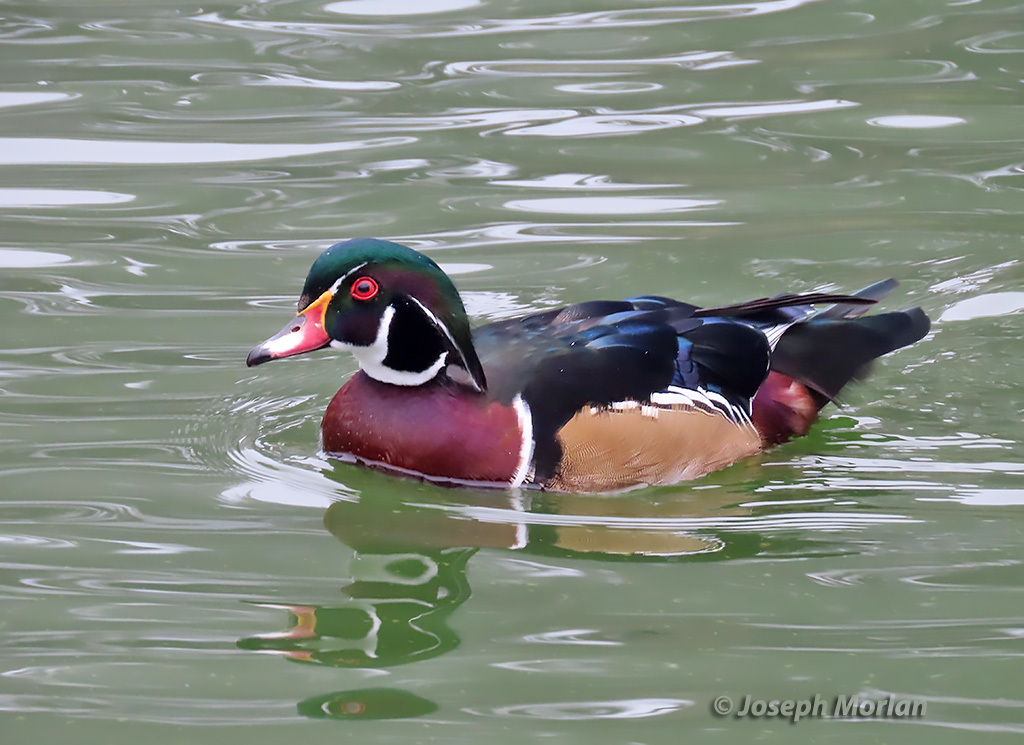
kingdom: Animalia
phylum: Chordata
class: Aves
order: Anseriformes
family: Anatidae
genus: Aix
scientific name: Aix sponsa
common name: Wood duck
